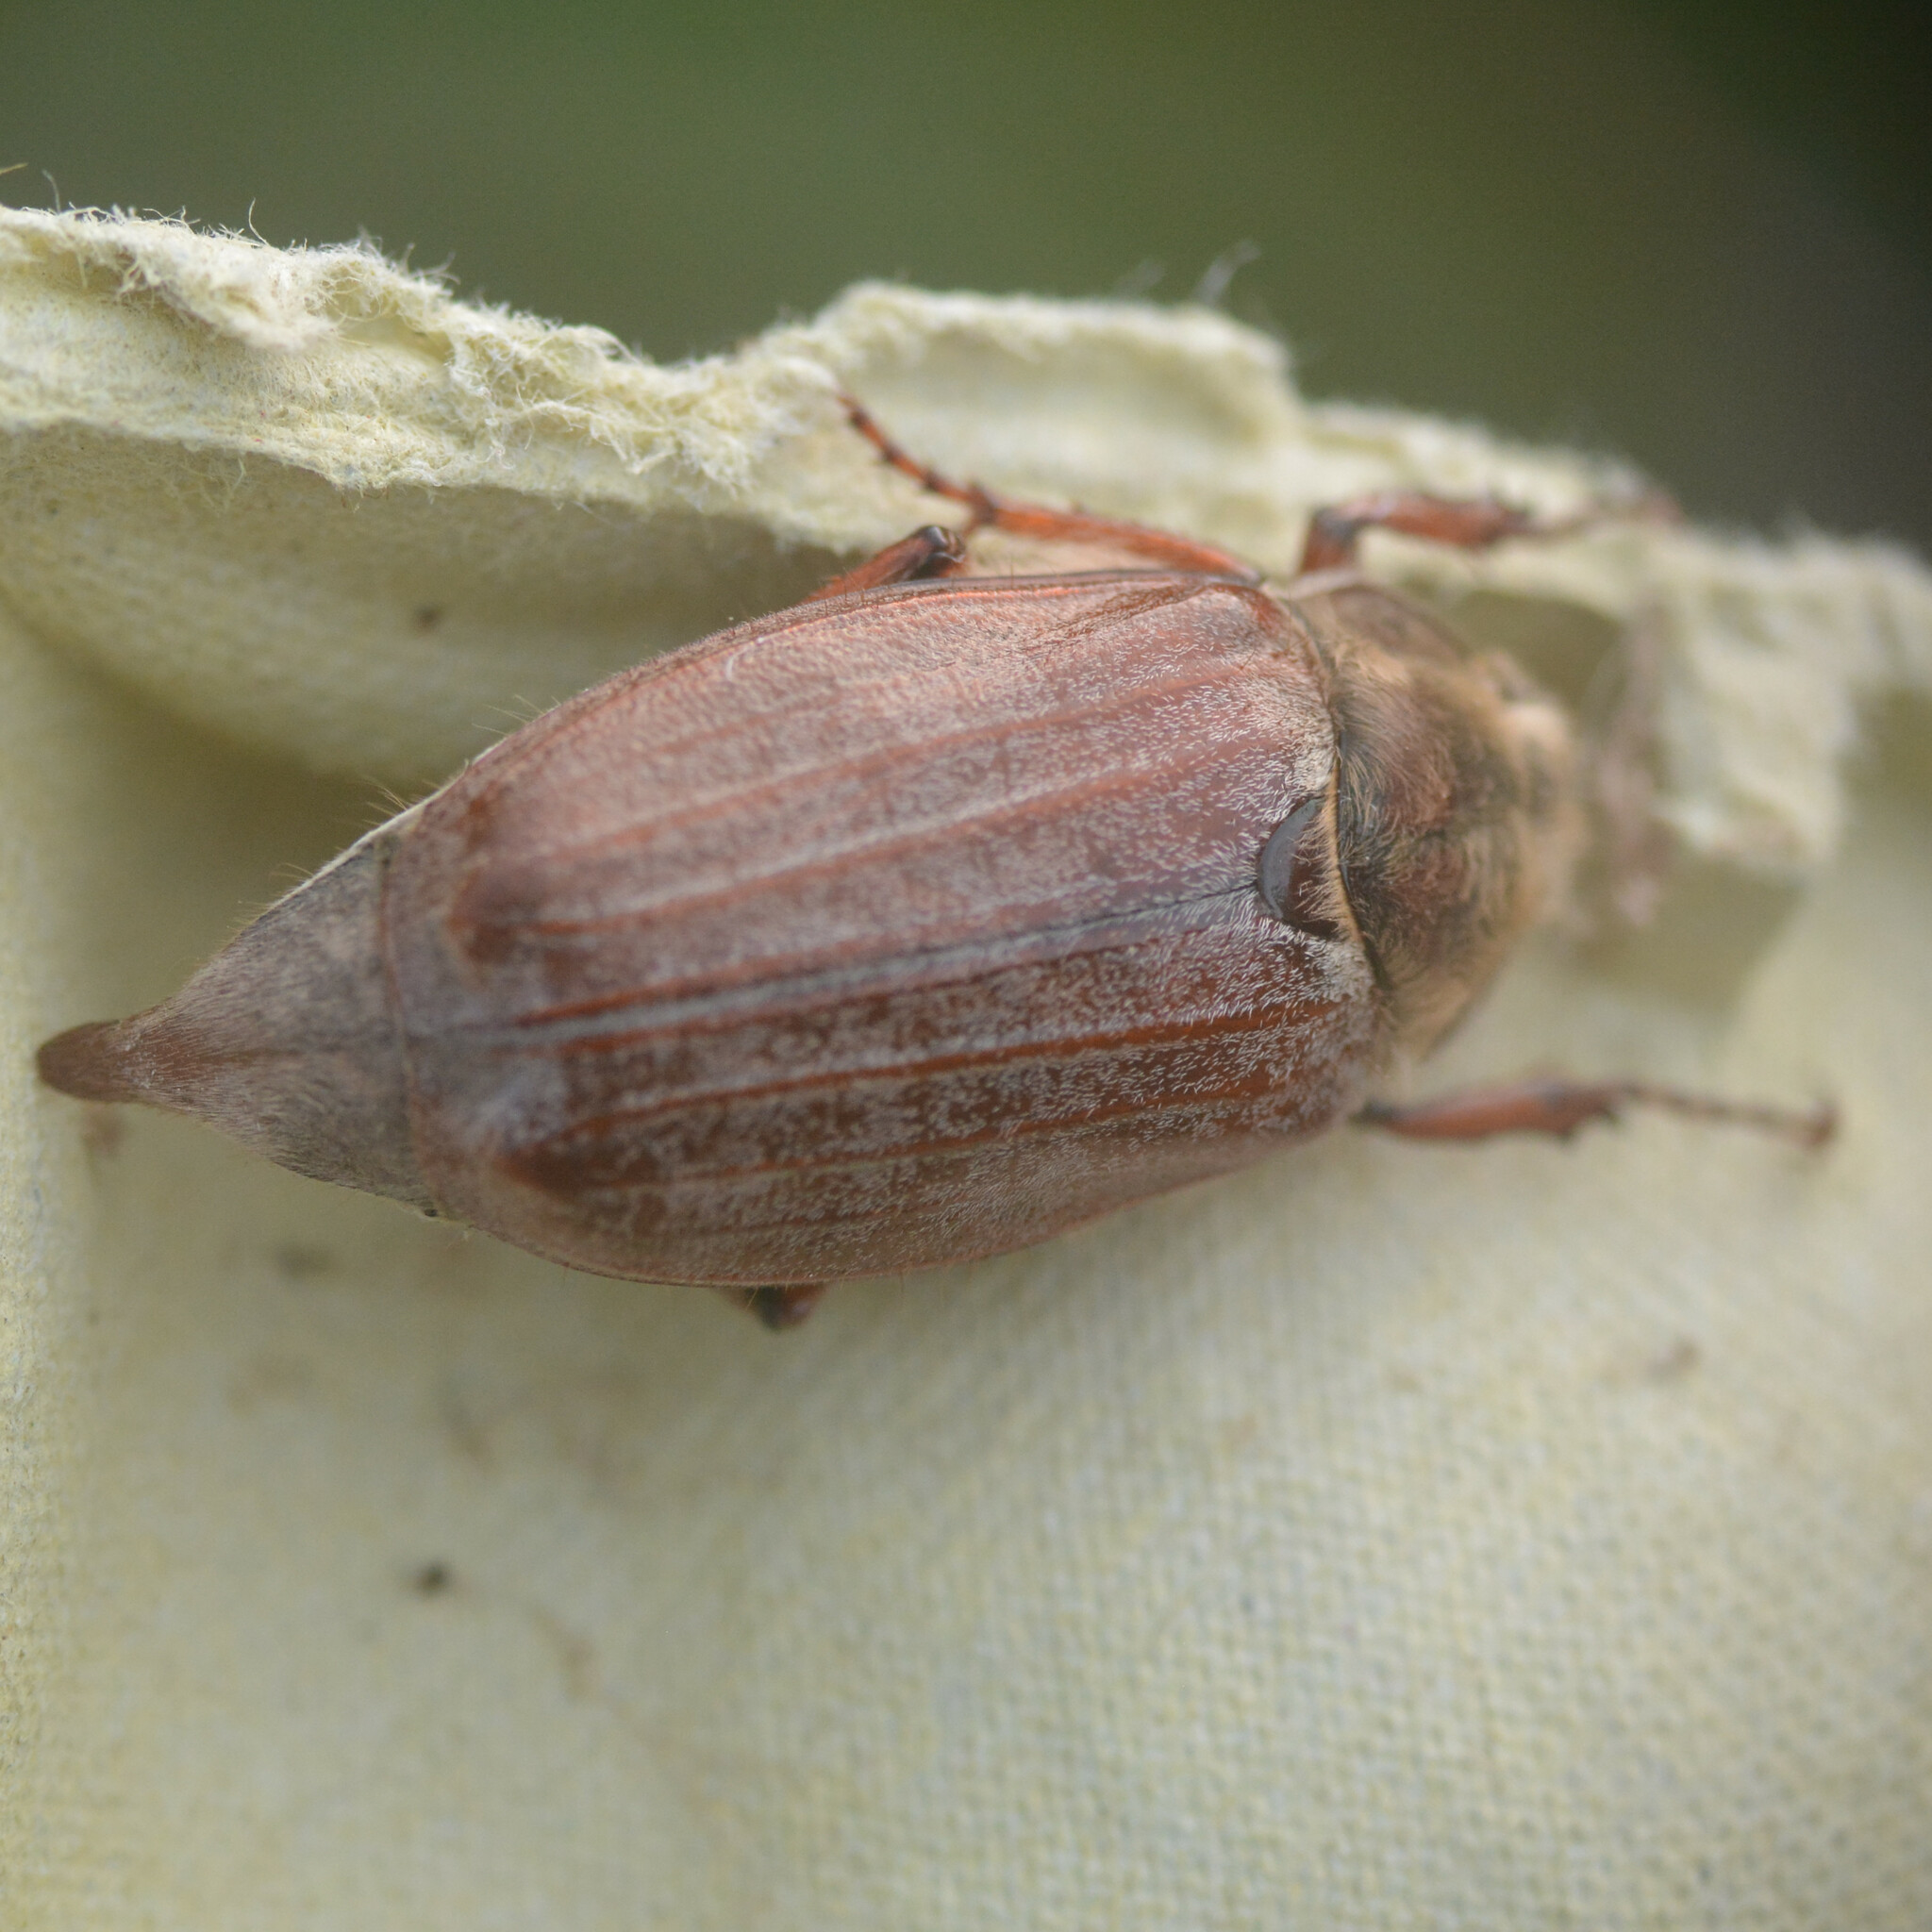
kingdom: Animalia
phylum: Arthropoda
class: Insecta
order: Coleoptera
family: Scarabaeidae
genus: Melolontha
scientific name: Melolontha melolontha
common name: Cockchafer maybeetle
